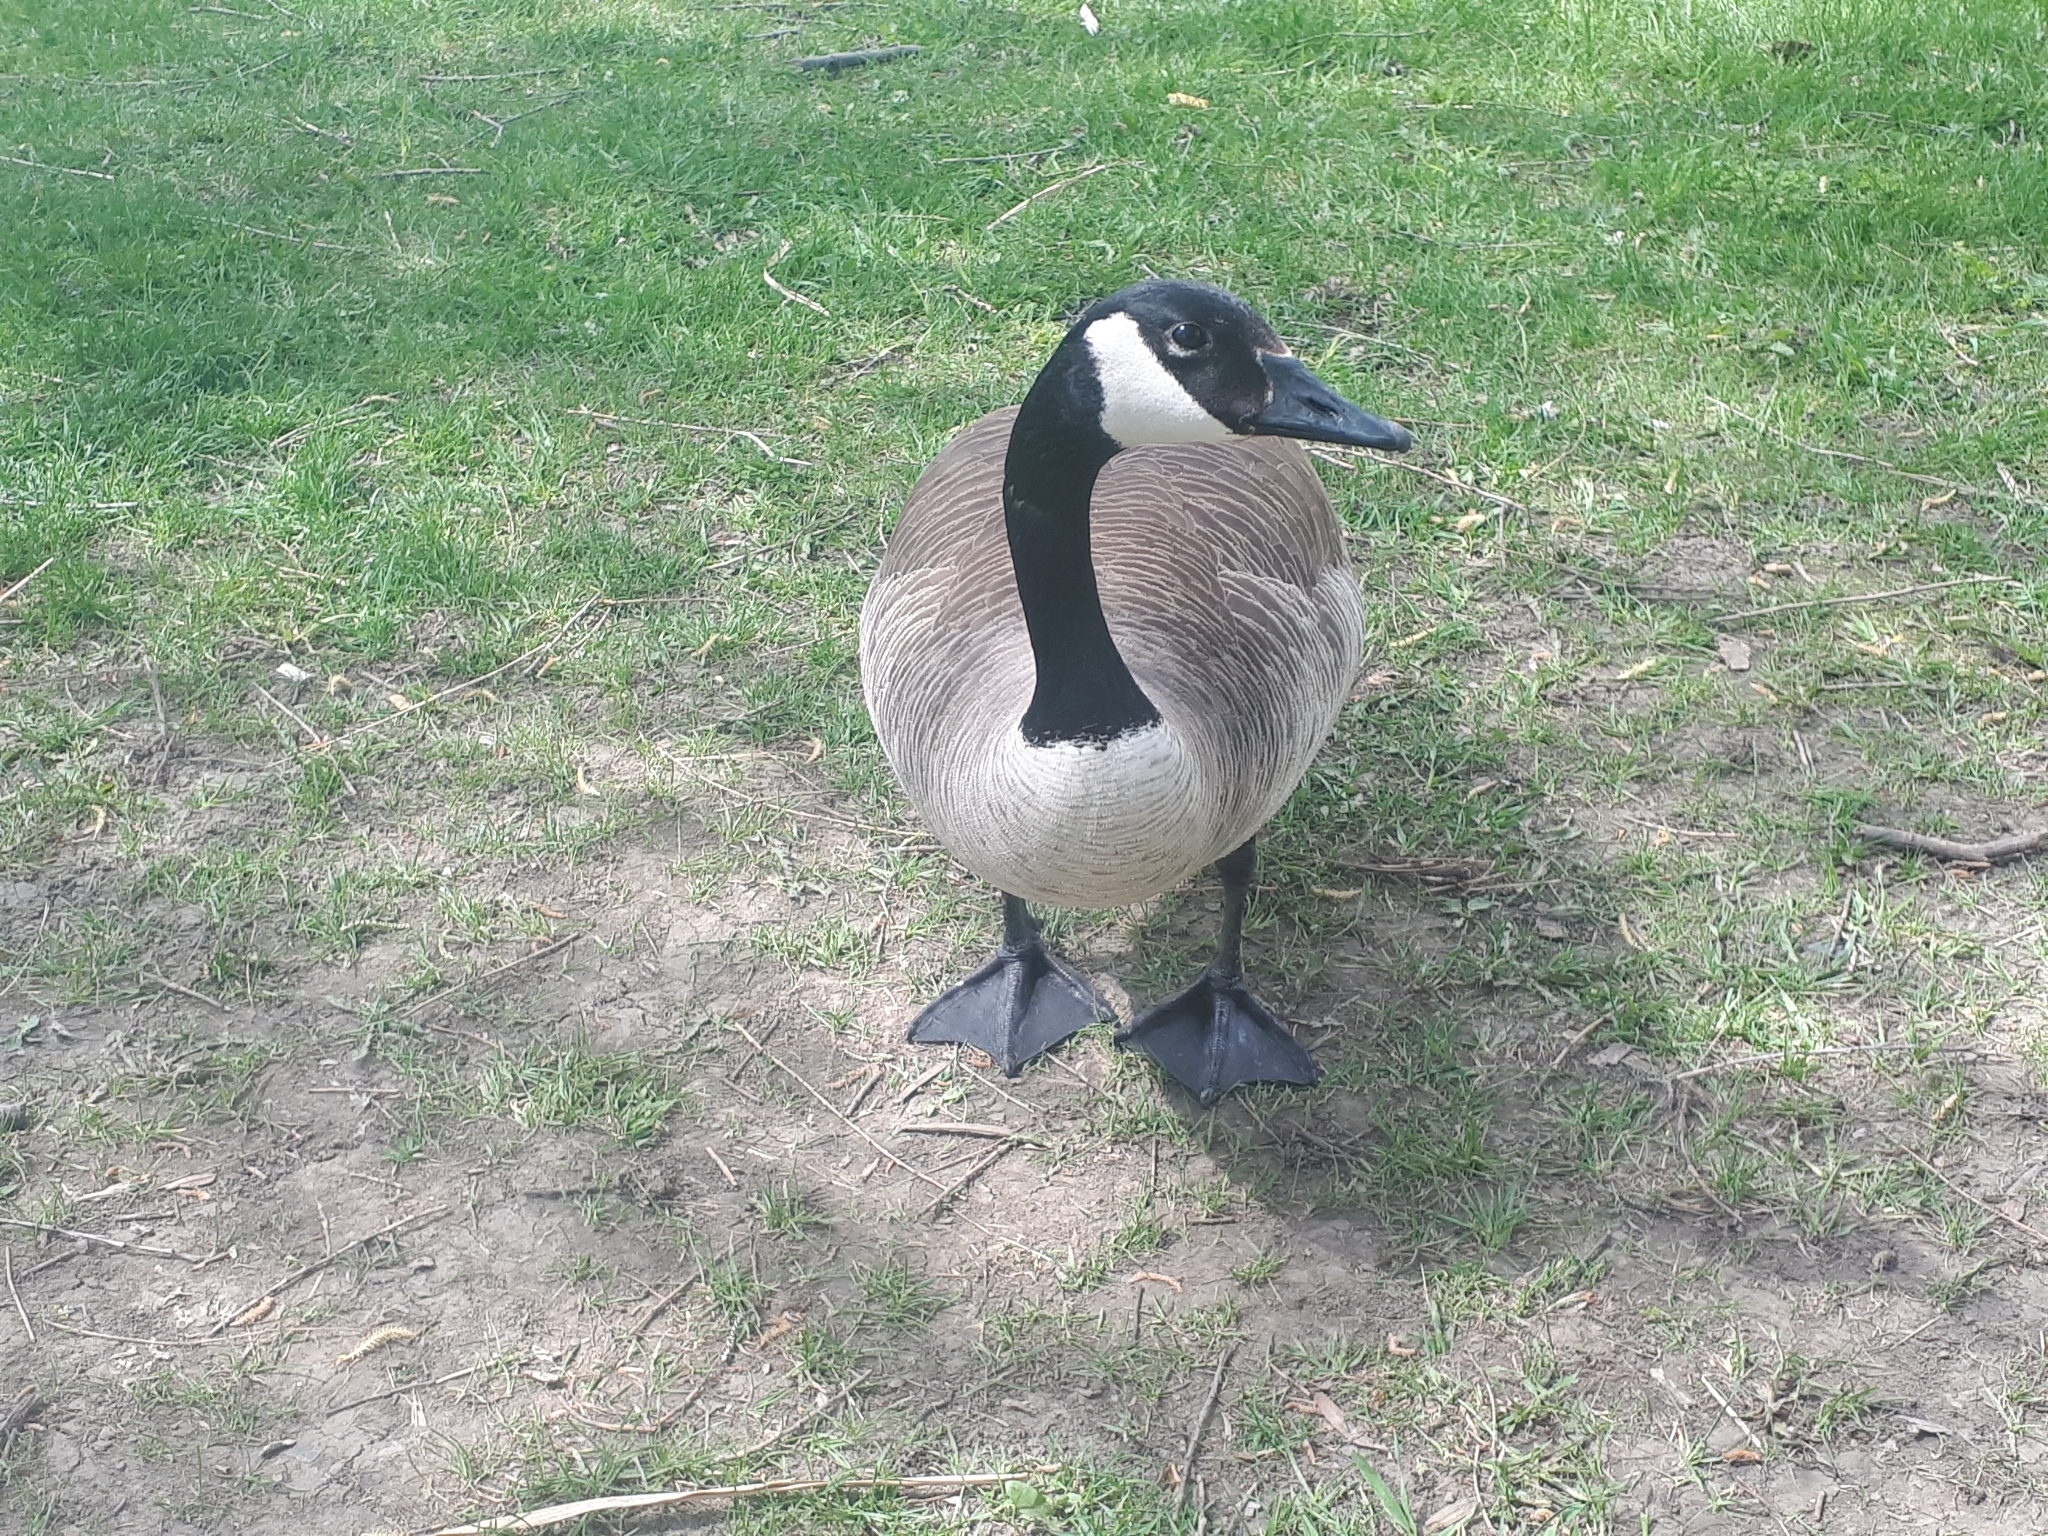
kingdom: Animalia
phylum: Chordata
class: Aves
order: Anseriformes
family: Anatidae
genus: Branta
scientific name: Branta canadensis
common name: Canada goose
